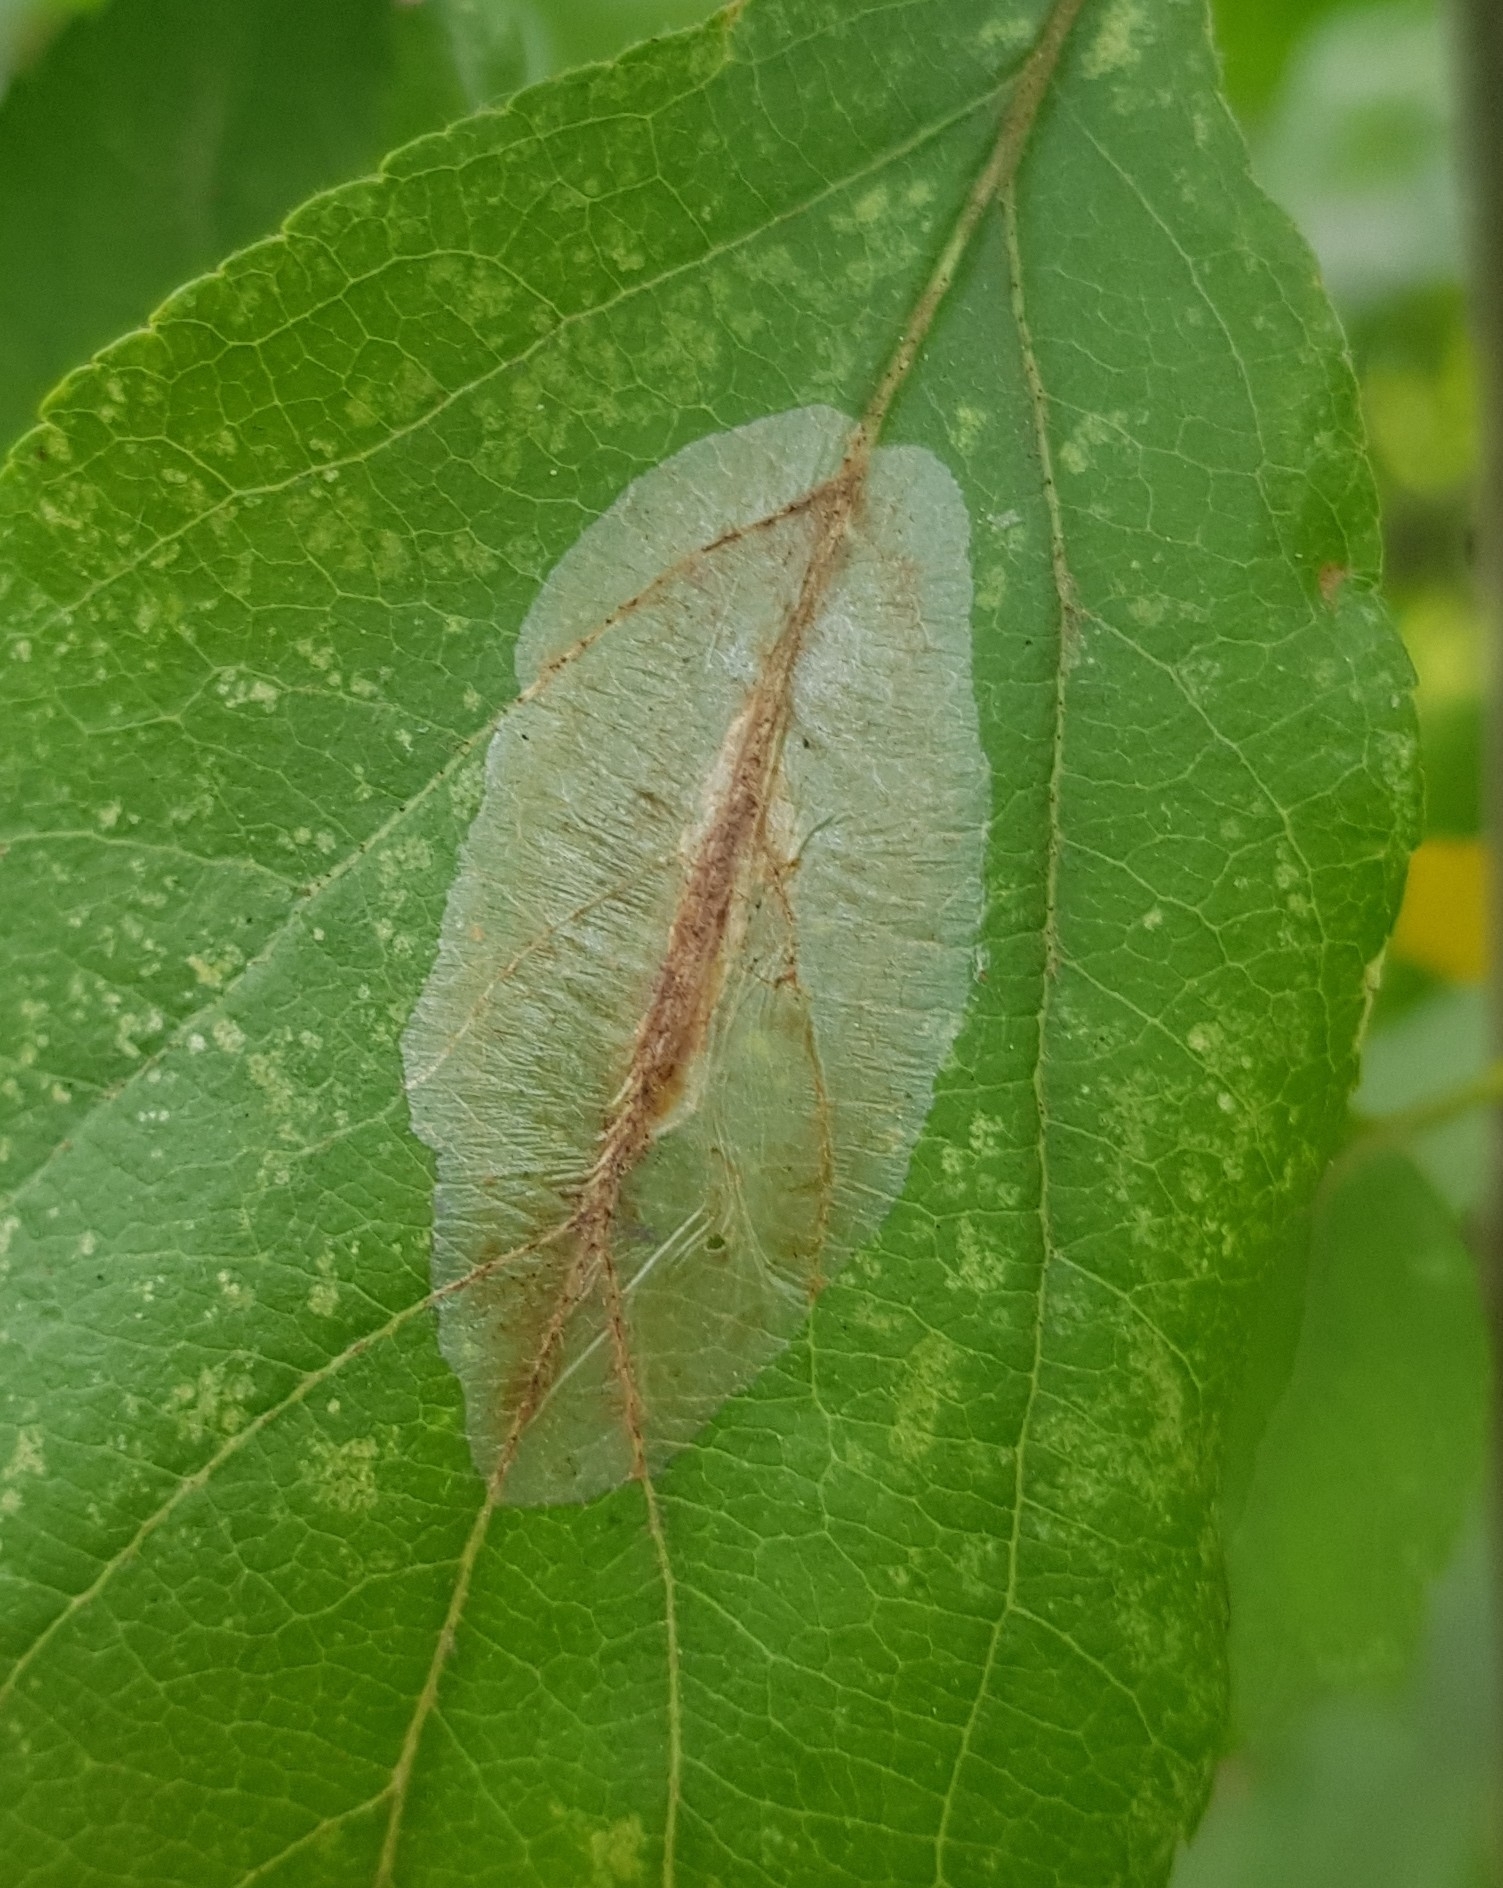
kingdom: Animalia
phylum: Arthropoda
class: Insecta
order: Lepidoptera
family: Lyonetiidae
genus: Lyonetia
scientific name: Lyonetia clerkella
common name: Apple leaf miner
